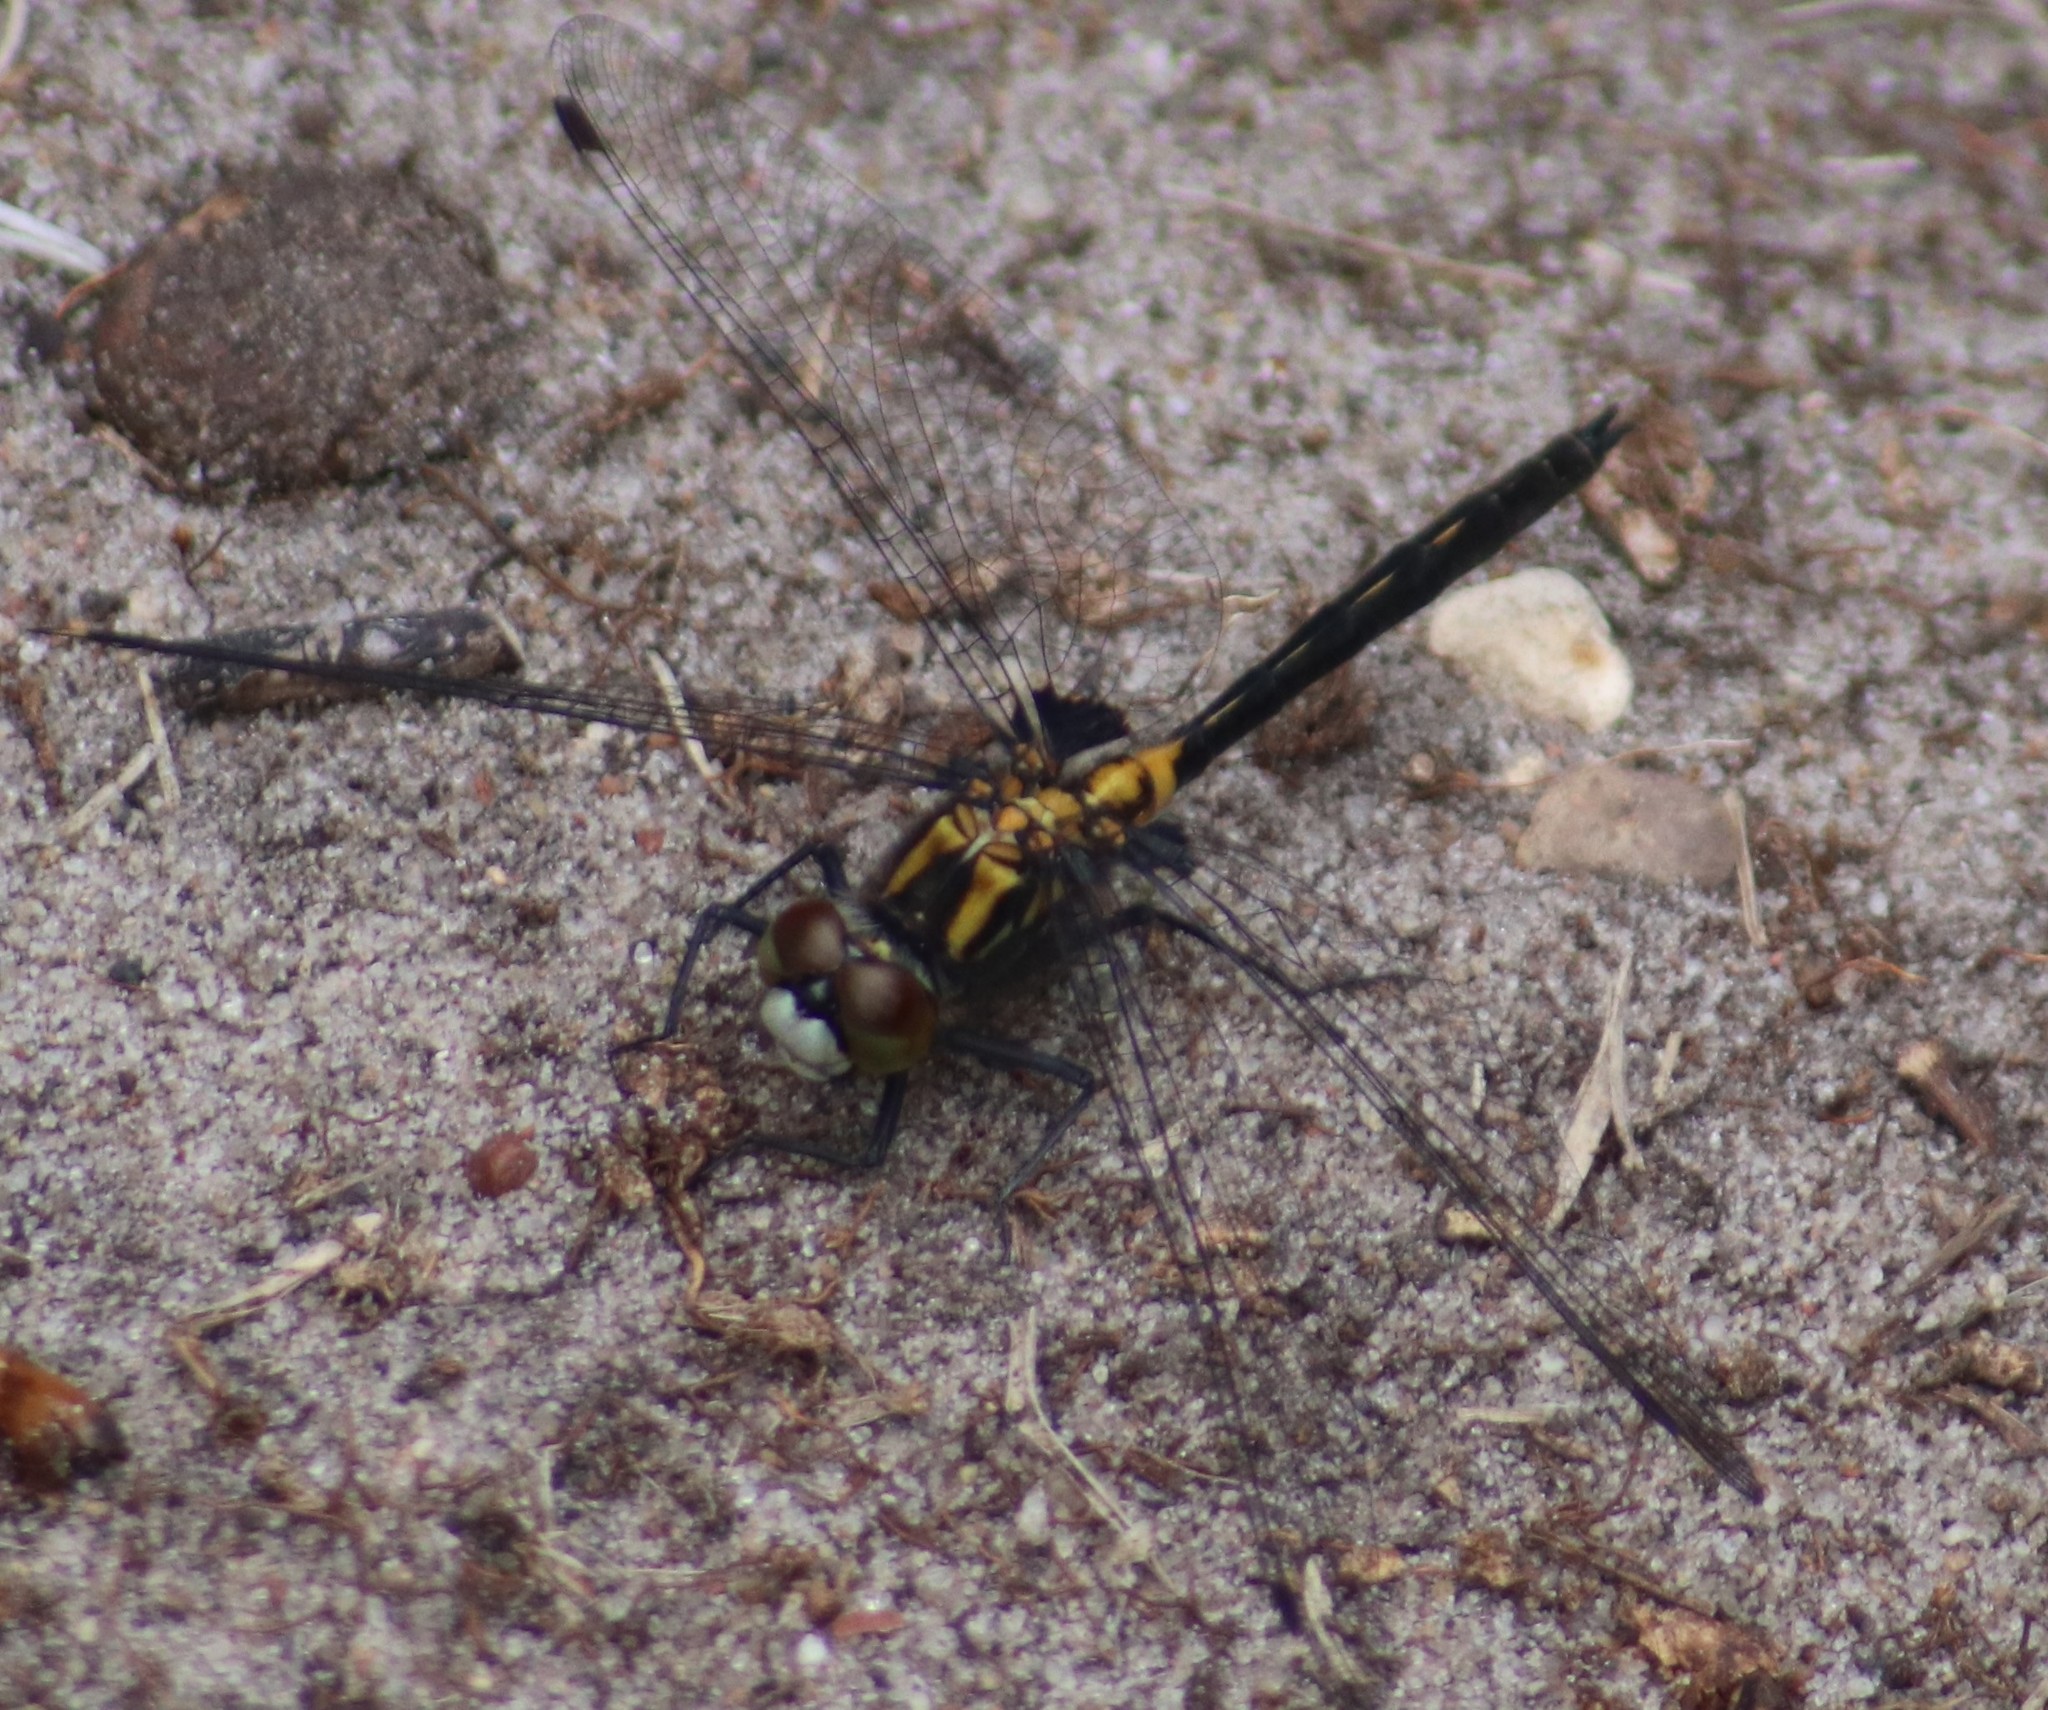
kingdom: Animalia
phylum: Arthropoda
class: Insecta
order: Odonata
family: Libellulidae
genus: Leucorrhinia
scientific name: Leucorrhinia proxima
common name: Belted whiteface
